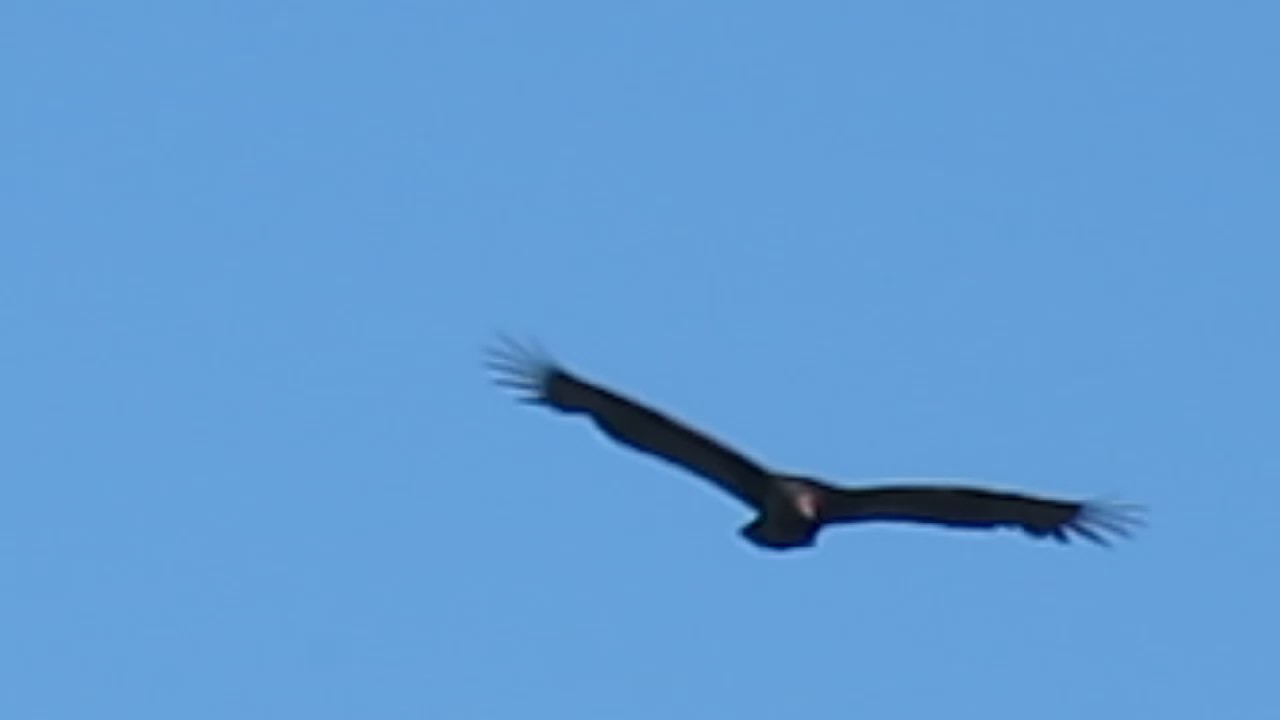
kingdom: Animalia
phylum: Chordata
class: Aves
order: Accipitriformes
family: Cathartidae
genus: Cathartes
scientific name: Cathartes aura
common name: Turkey vulture
